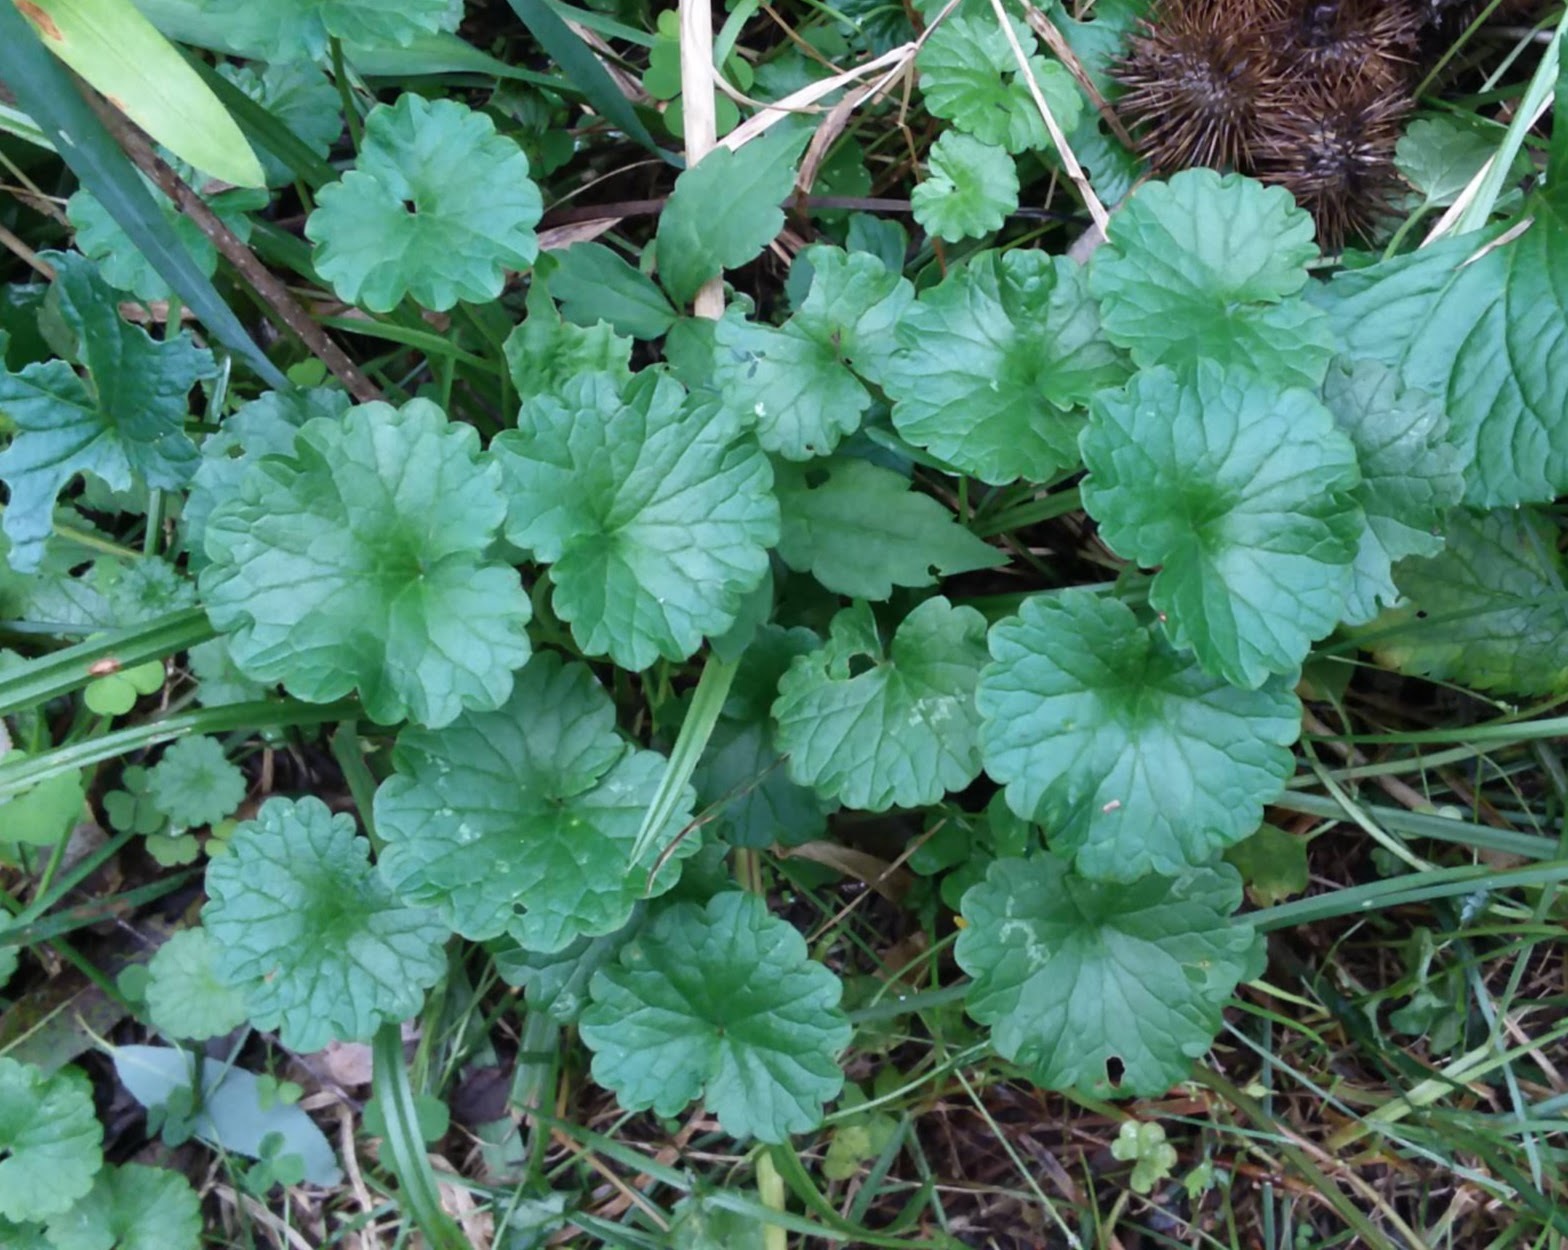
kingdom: Plantae
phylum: Tracheophyta
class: Magnoliopsida
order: Lamiales
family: Lamiaceae
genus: Glechoma
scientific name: Glechoma hederacea
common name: Ground ivy
